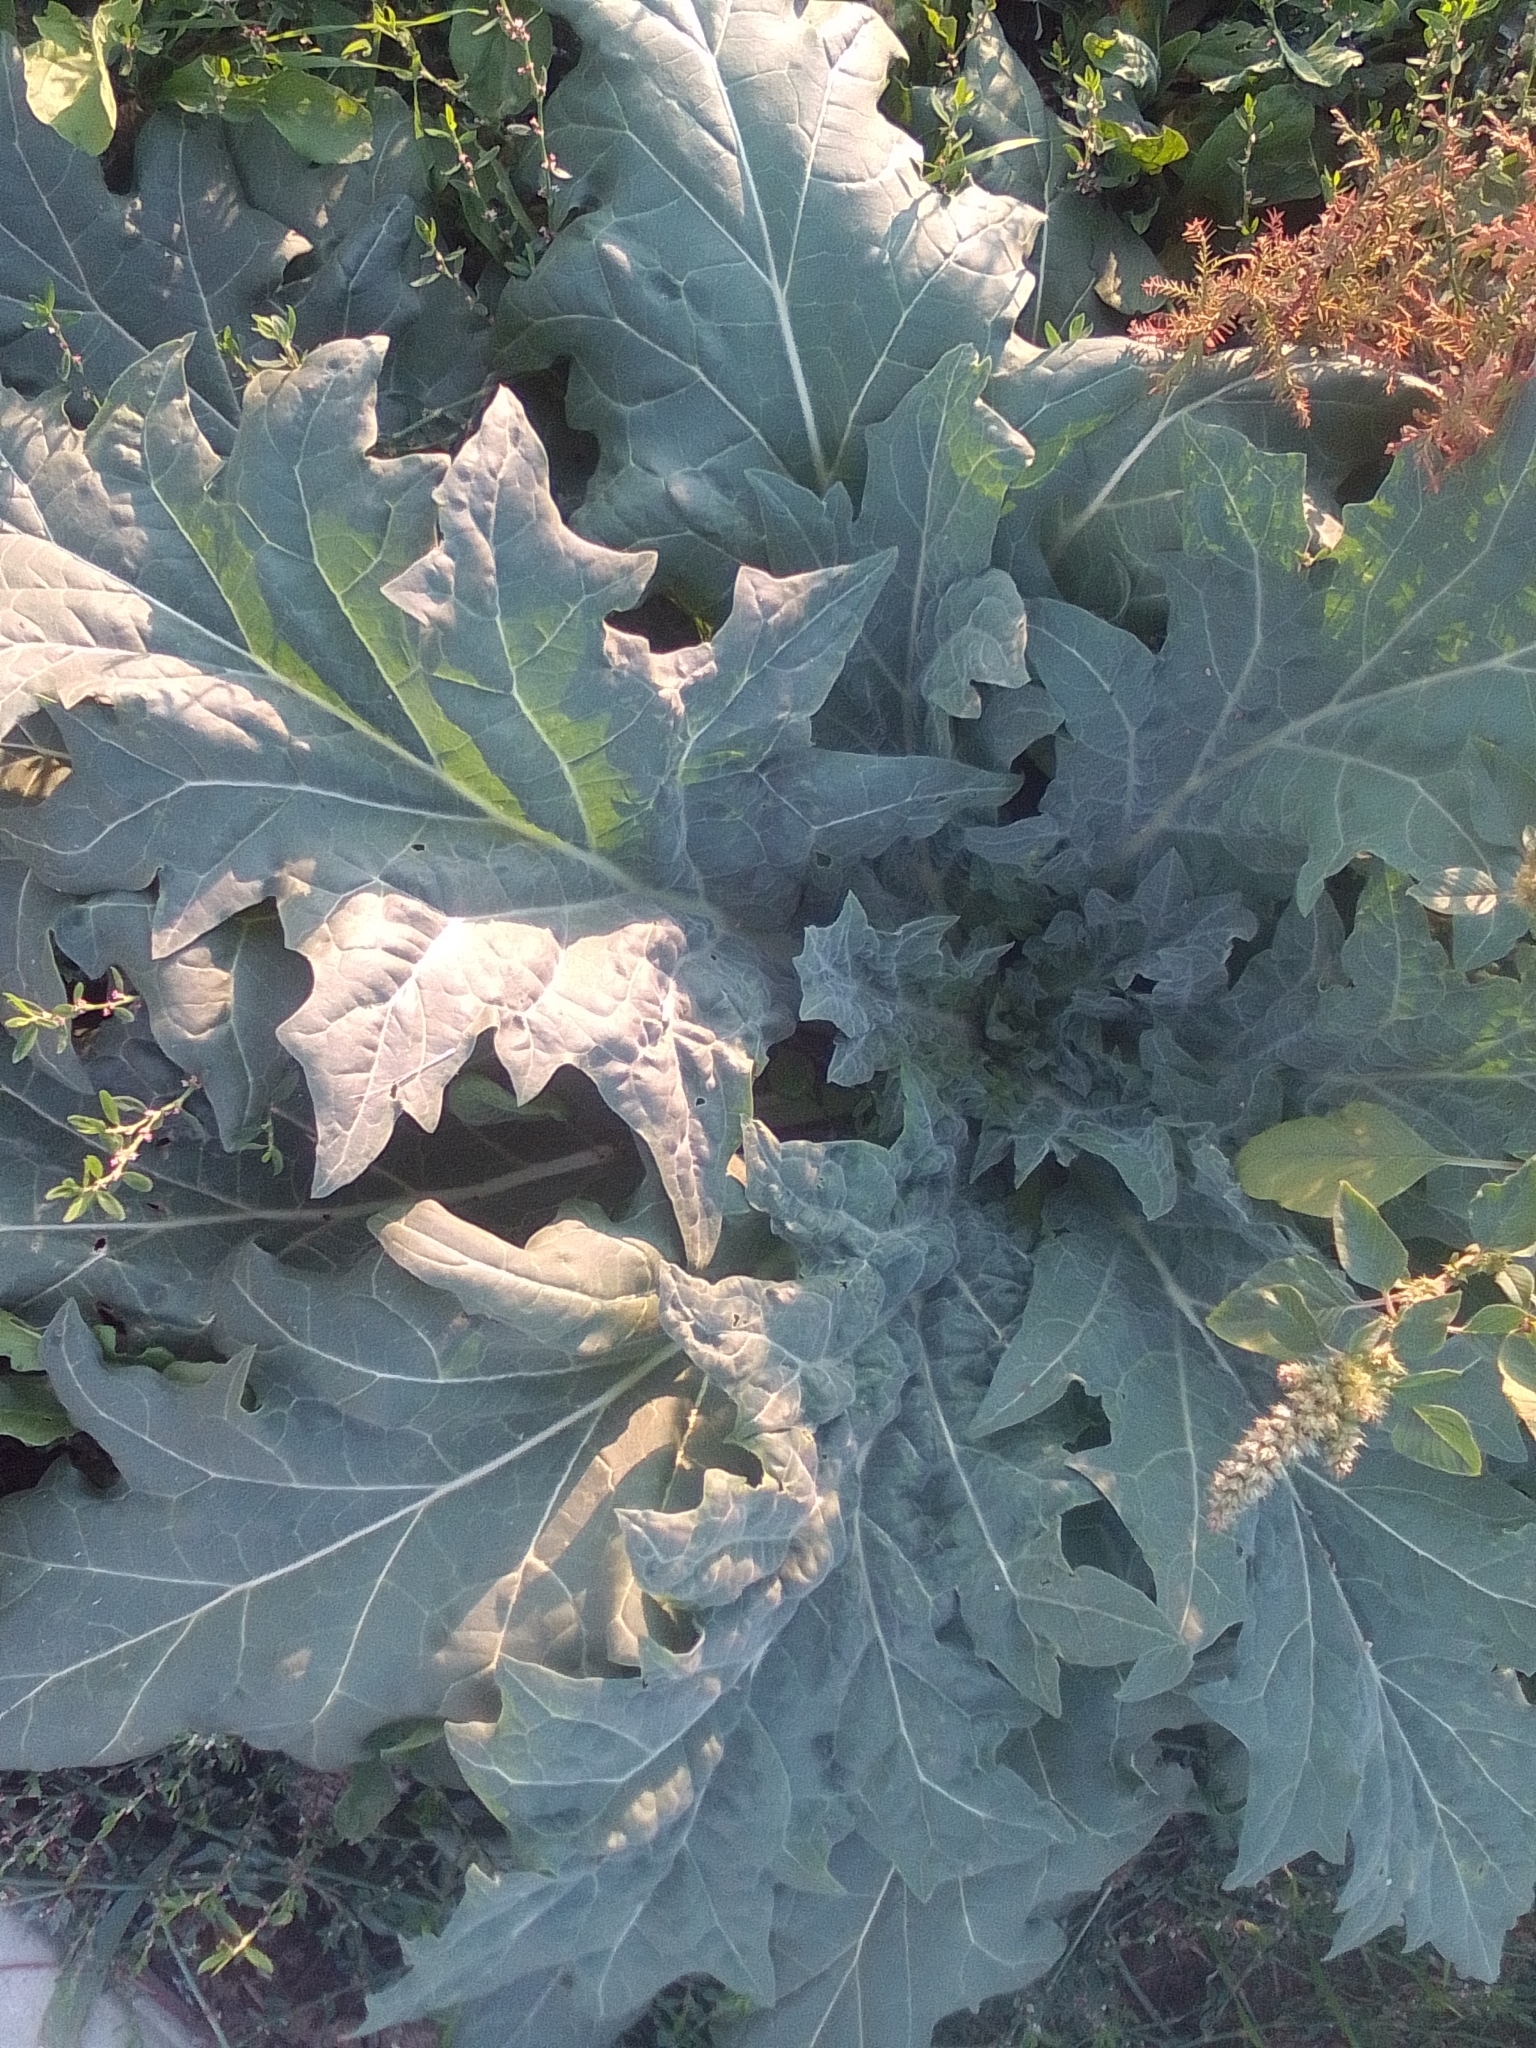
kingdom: Plantae
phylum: Tracheophyta
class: Magnoliopsida
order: Solanales
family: Solanaceae
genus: Hyoscyamus
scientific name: Hyoscyamus niger
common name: Henbane
